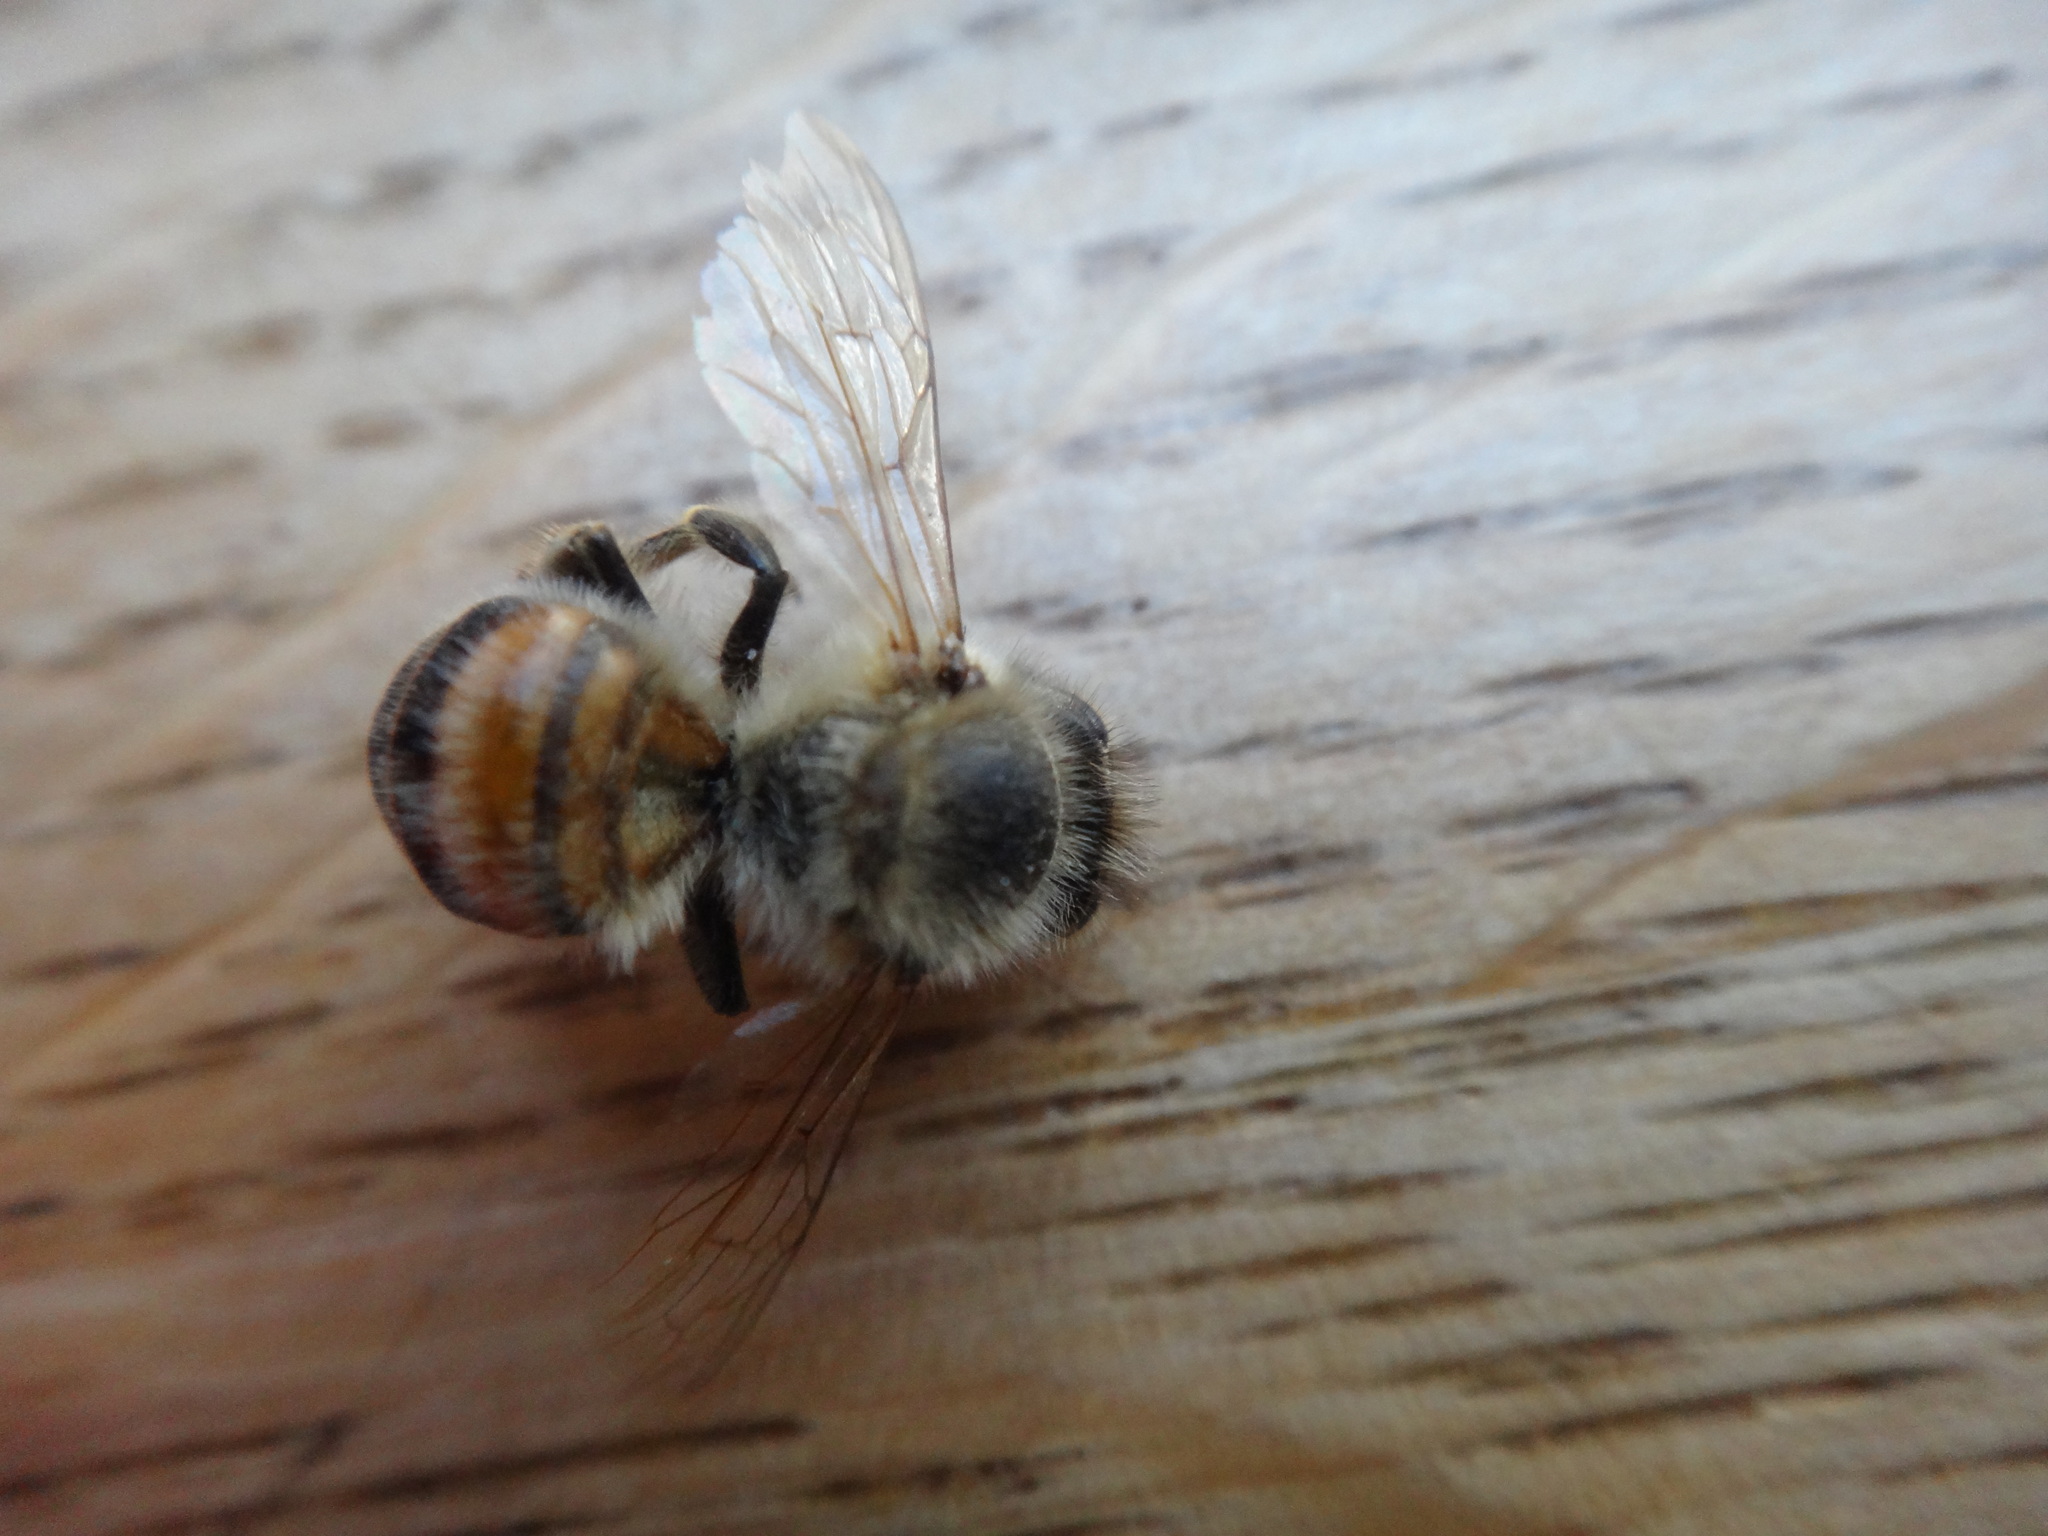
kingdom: Animalia
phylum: Arthropoda
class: Insecta
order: Hymenoptera
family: Apidae
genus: Apis
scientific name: Apis mellifera
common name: Honey bee
